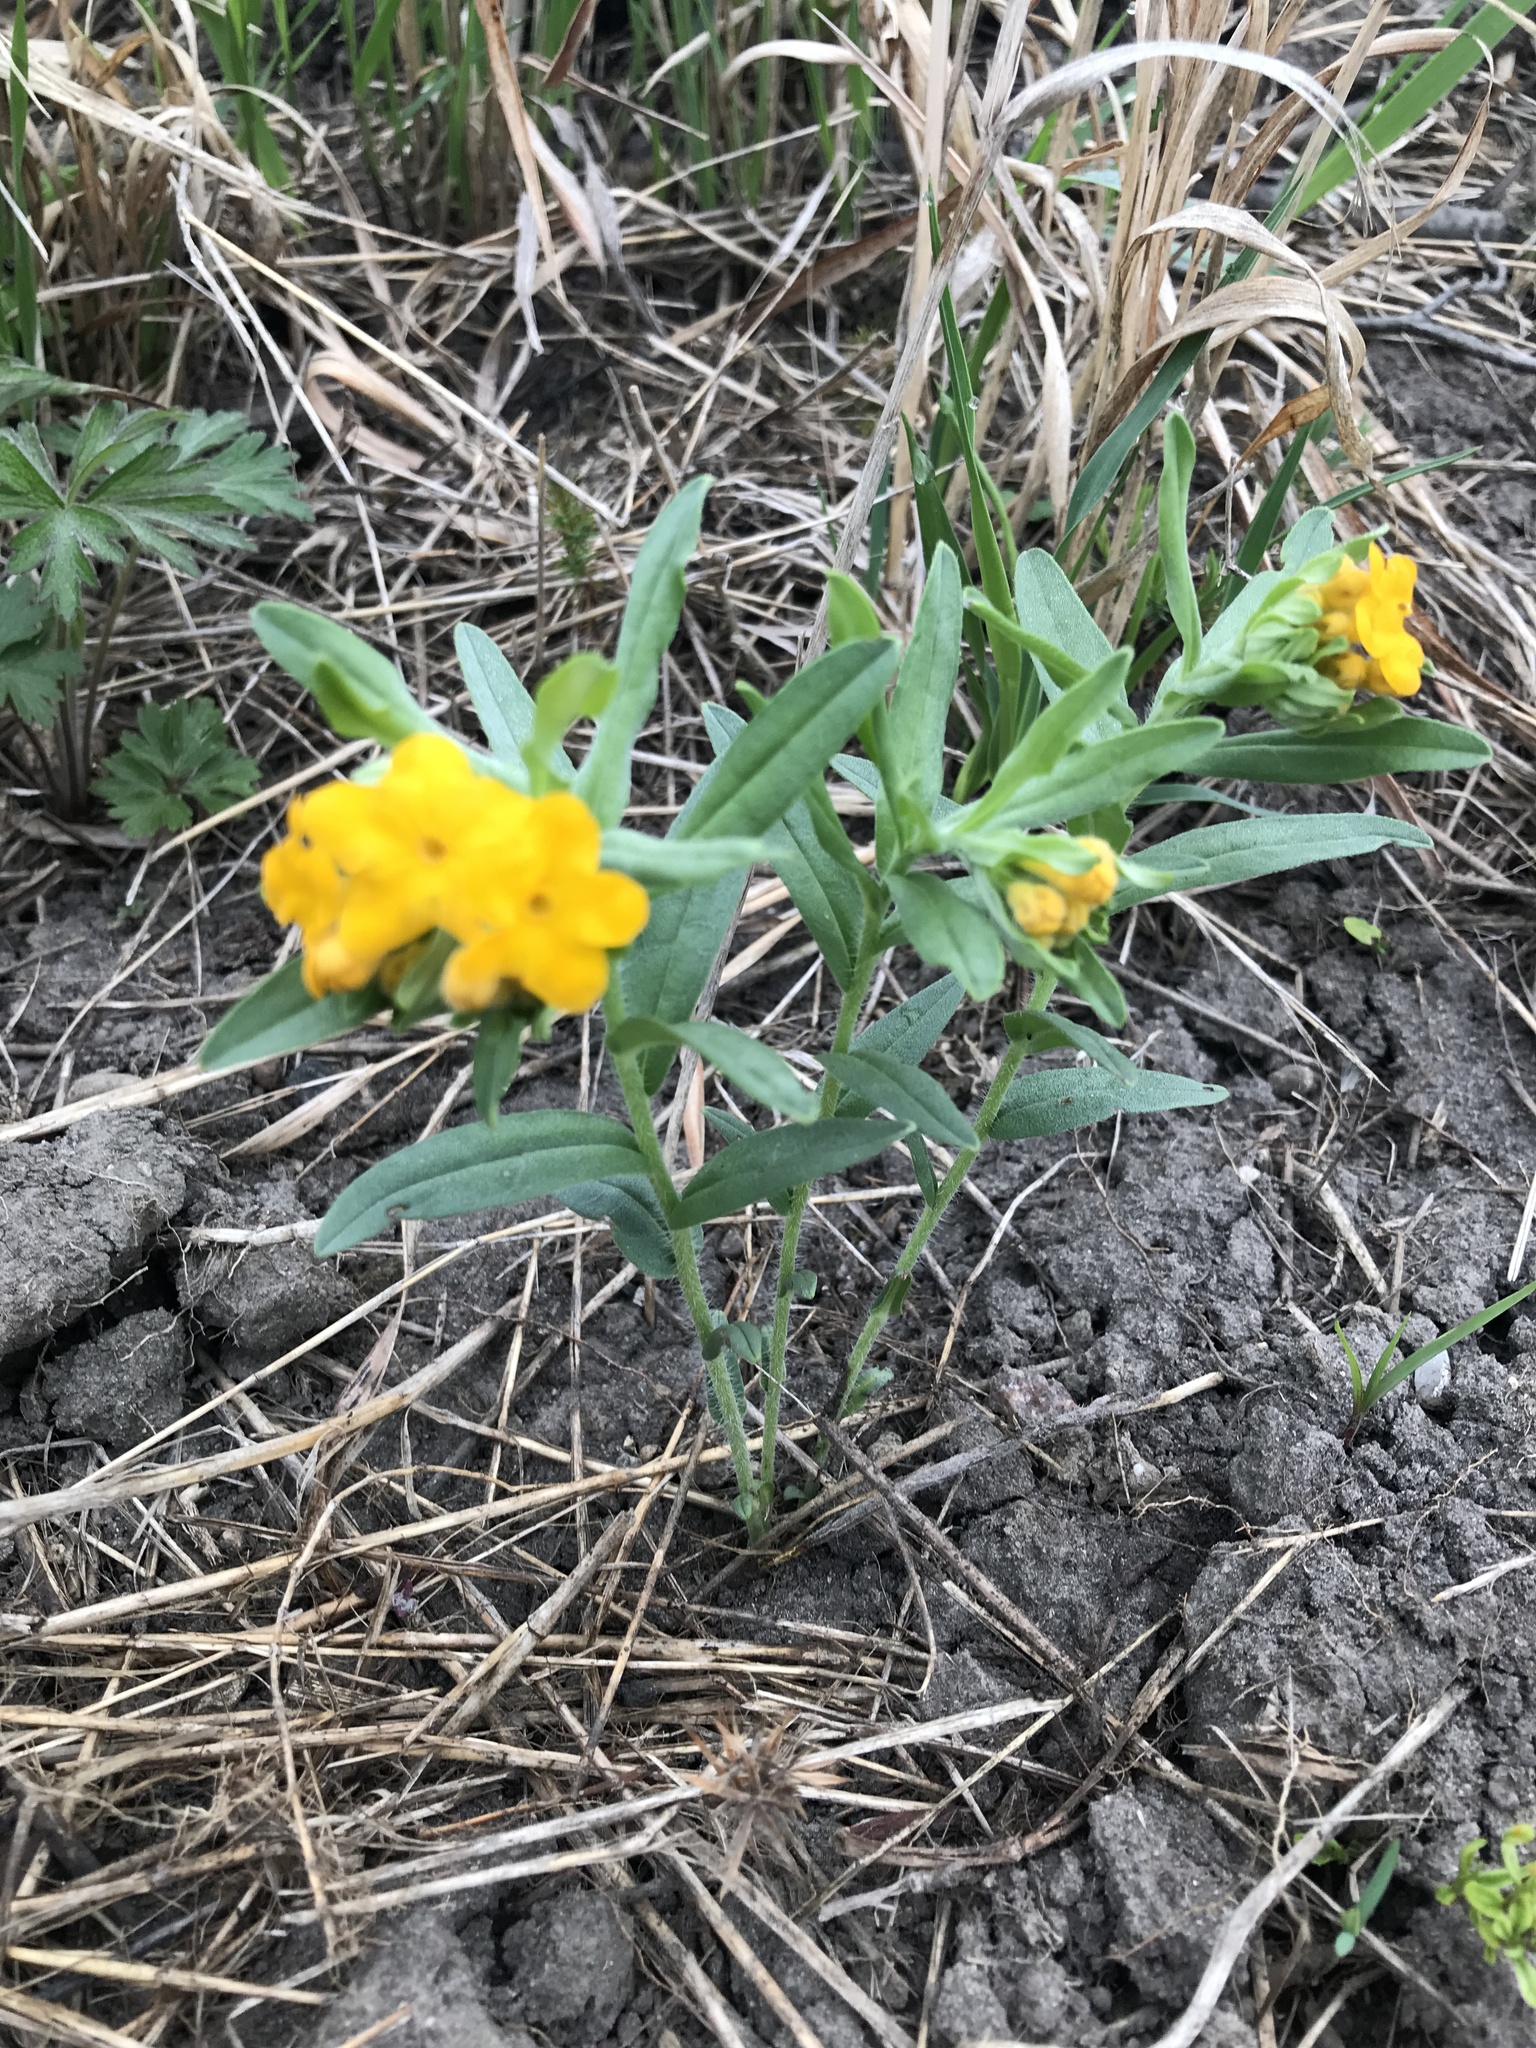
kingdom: Plantae
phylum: Tracheophyta
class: Magnoliopsida
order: Boraginales
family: Boraginaceae
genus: Lithospermum
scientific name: Lithospermum canescens
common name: Hoary puccoon
